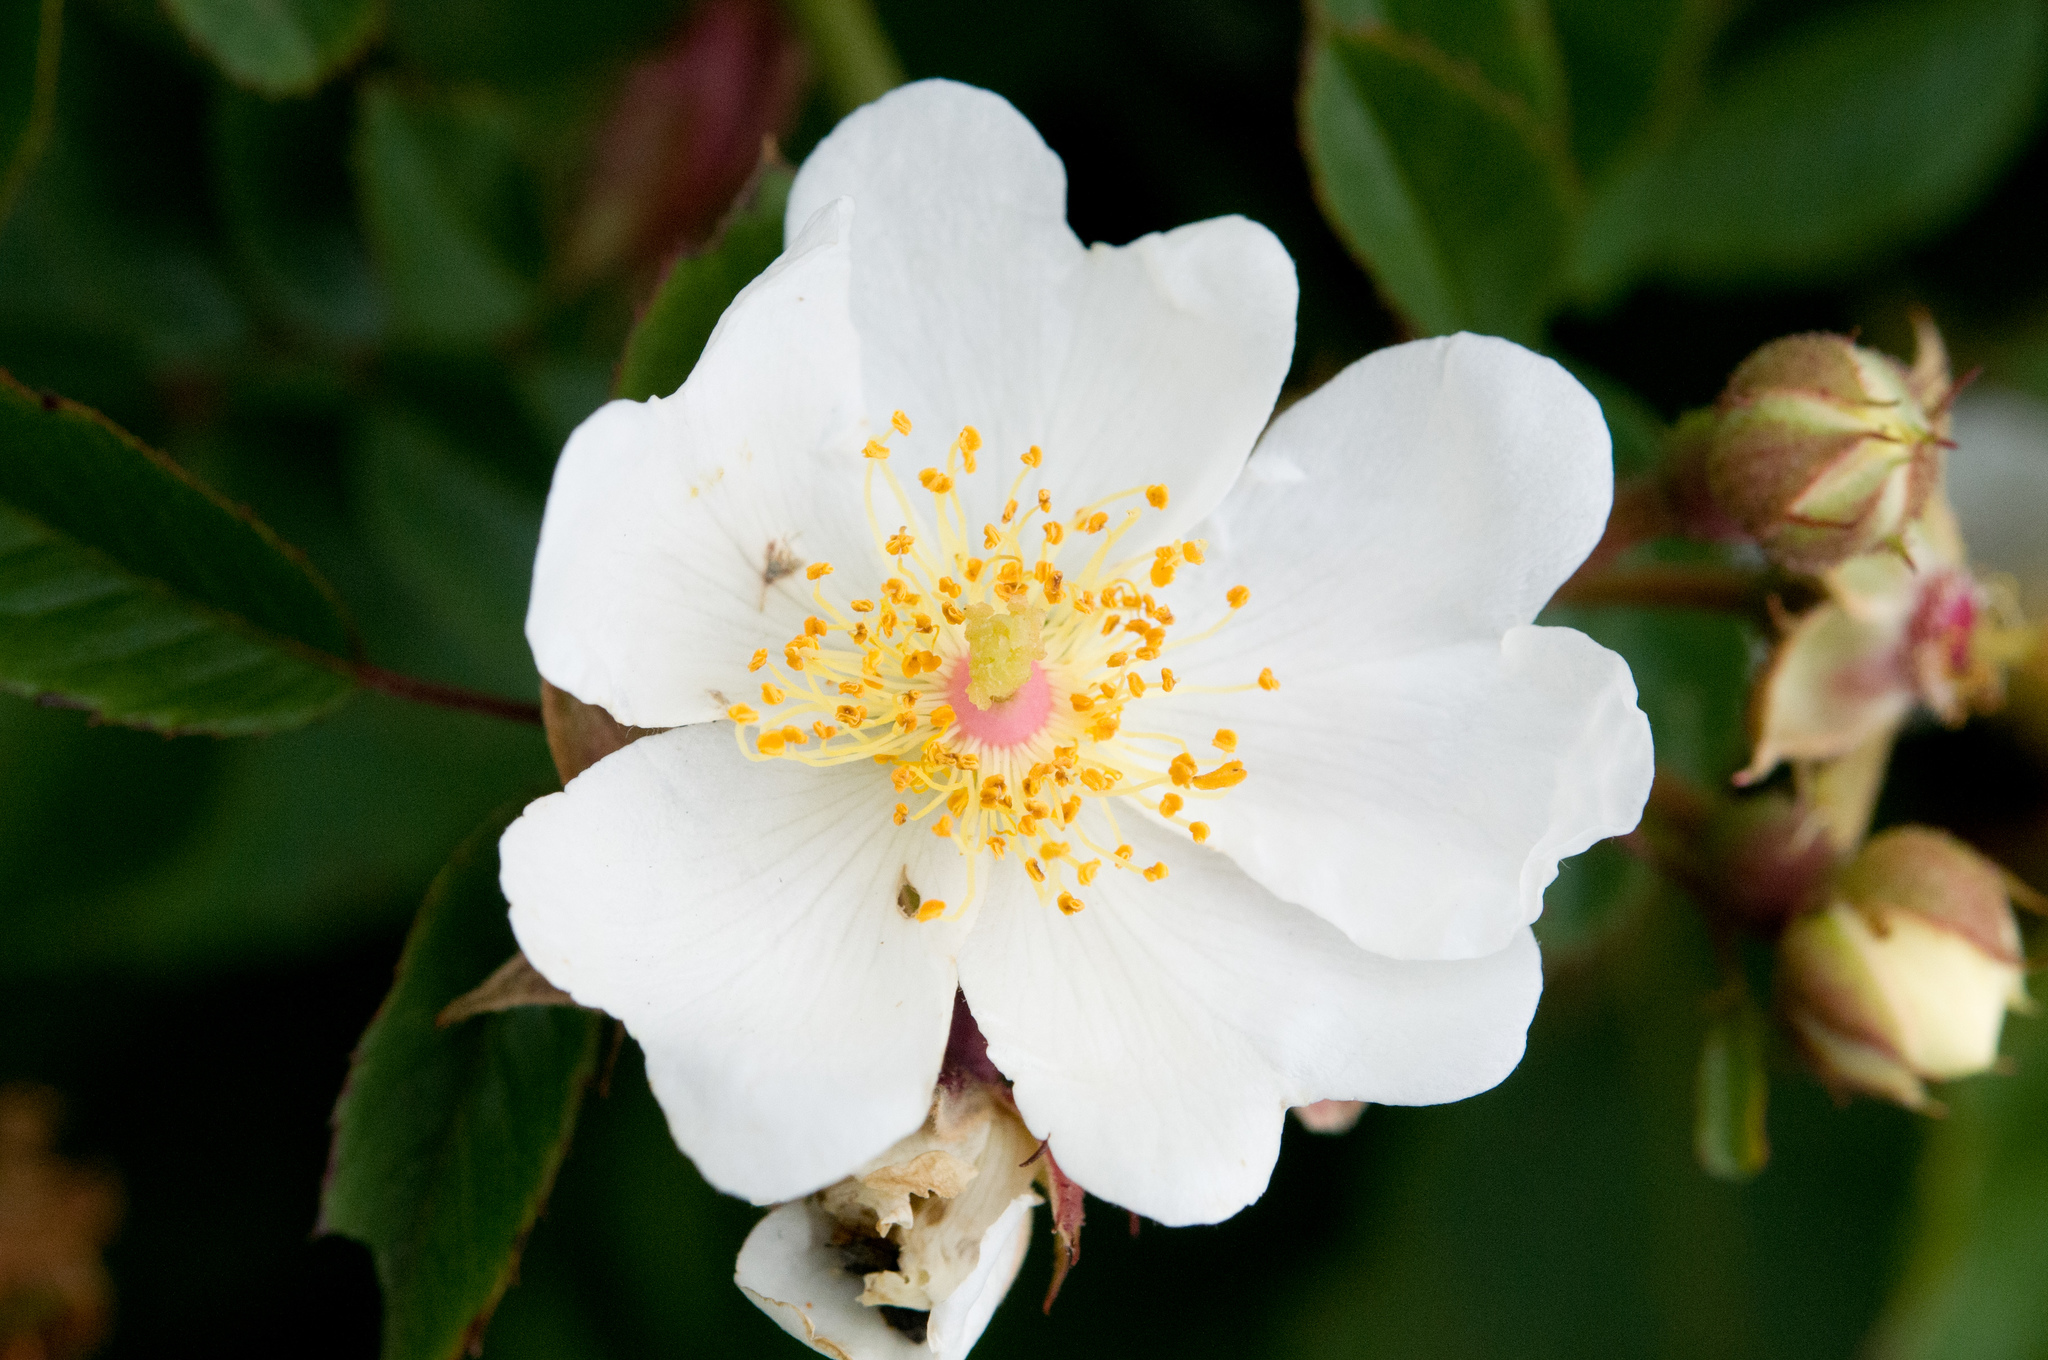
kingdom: Plantae
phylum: Tracheophyta
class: Magnoliopsida
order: Rosales
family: Rosaceae
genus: Rosa
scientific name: Rosa transmorrisonensis
